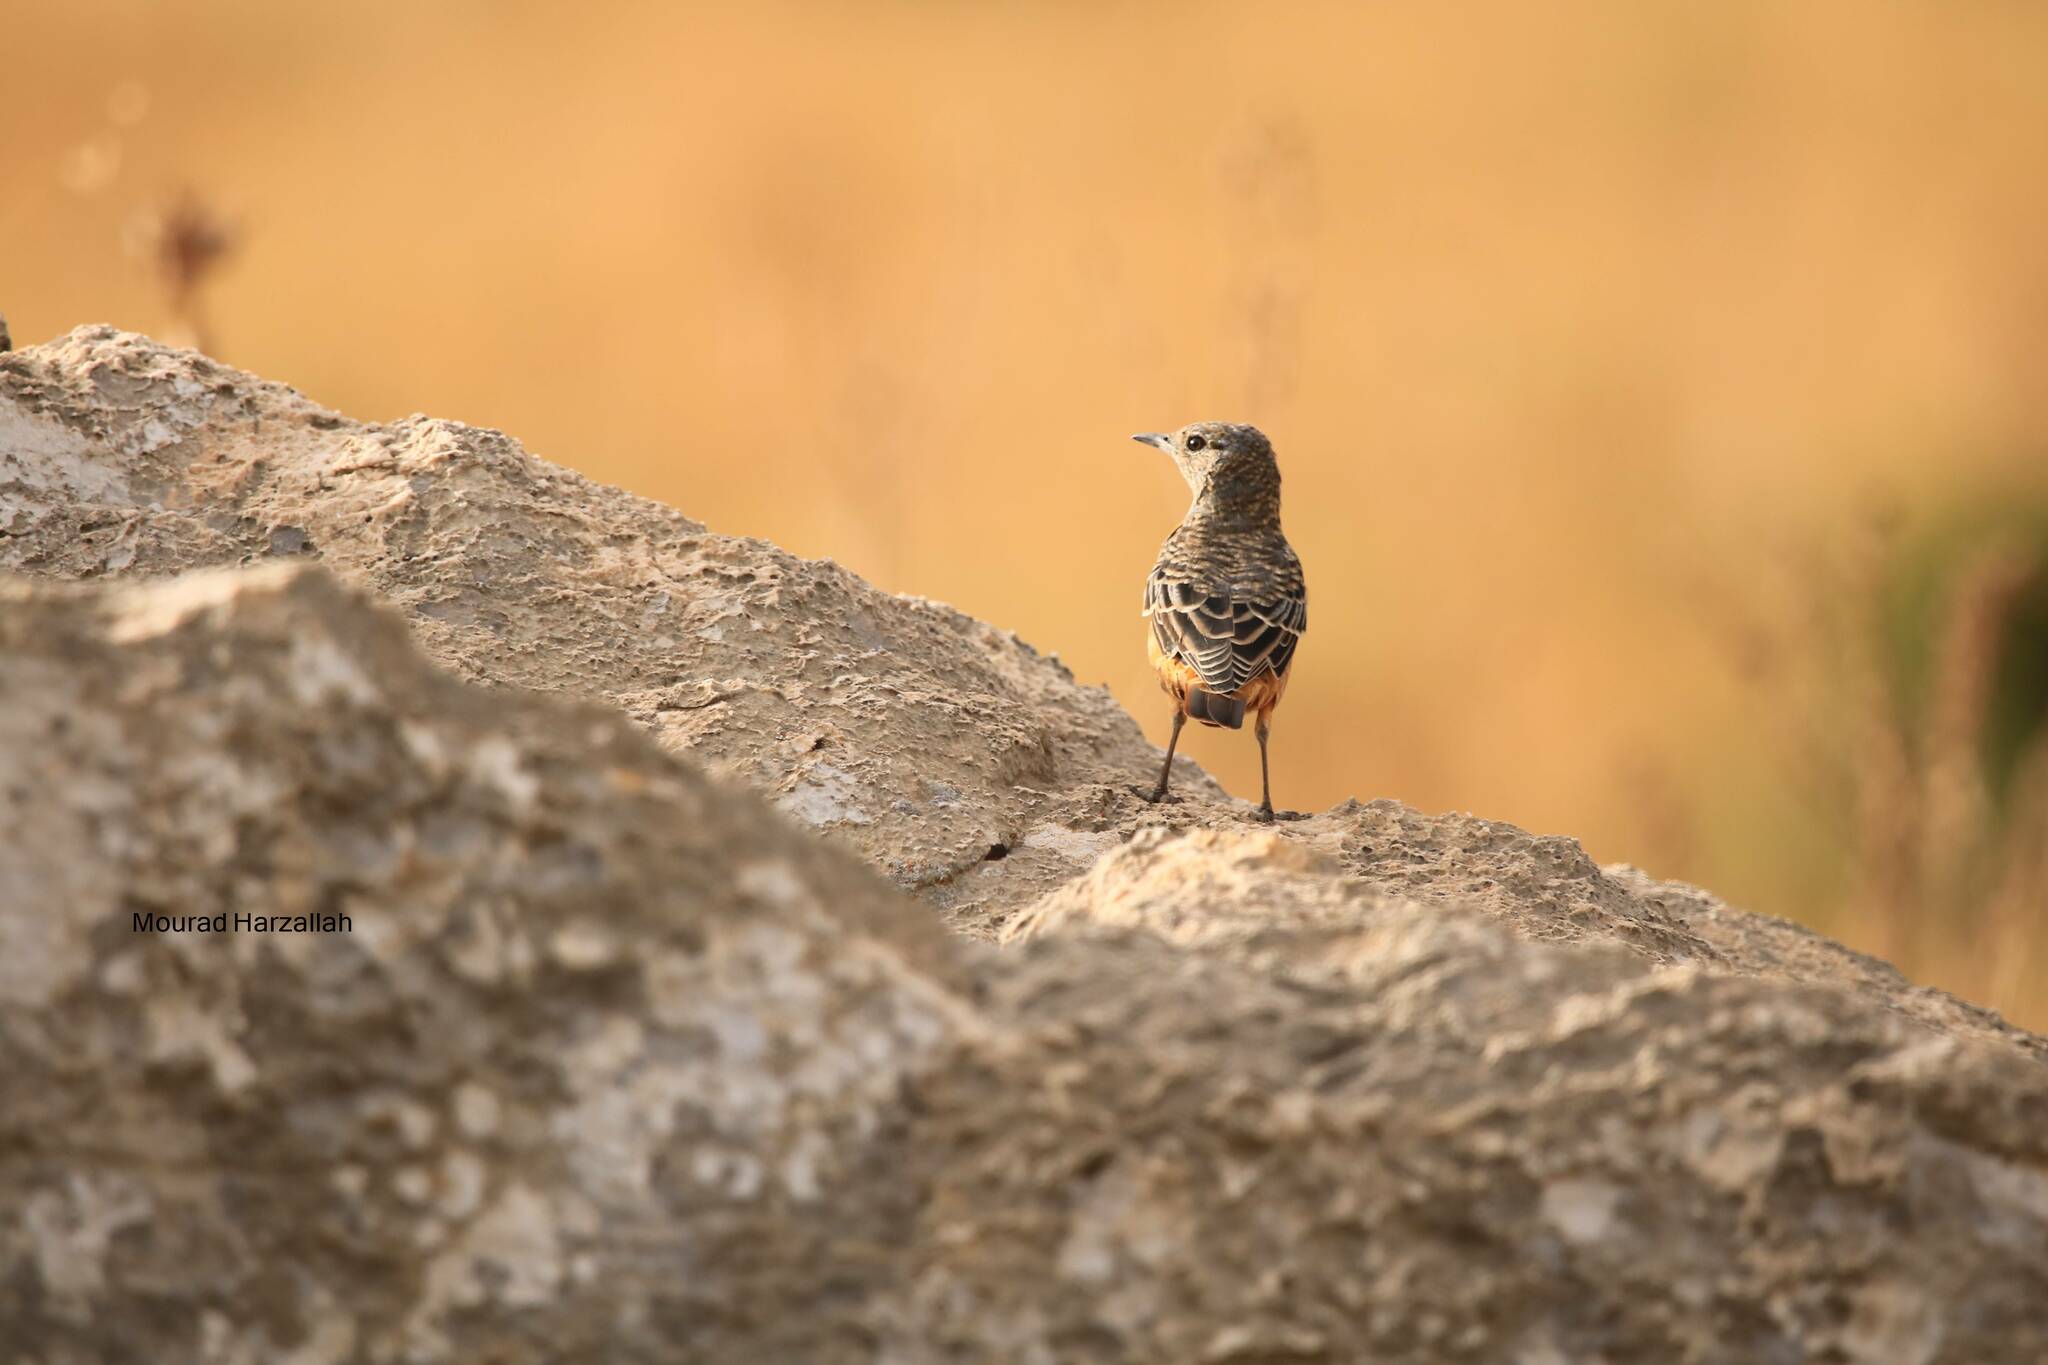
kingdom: Animalia
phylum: Chordata
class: Aves
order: Passeriformes
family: Muscicapidae
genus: Monticola
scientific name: Monticola saxatilis
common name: Rufous-tailed rock thrush
